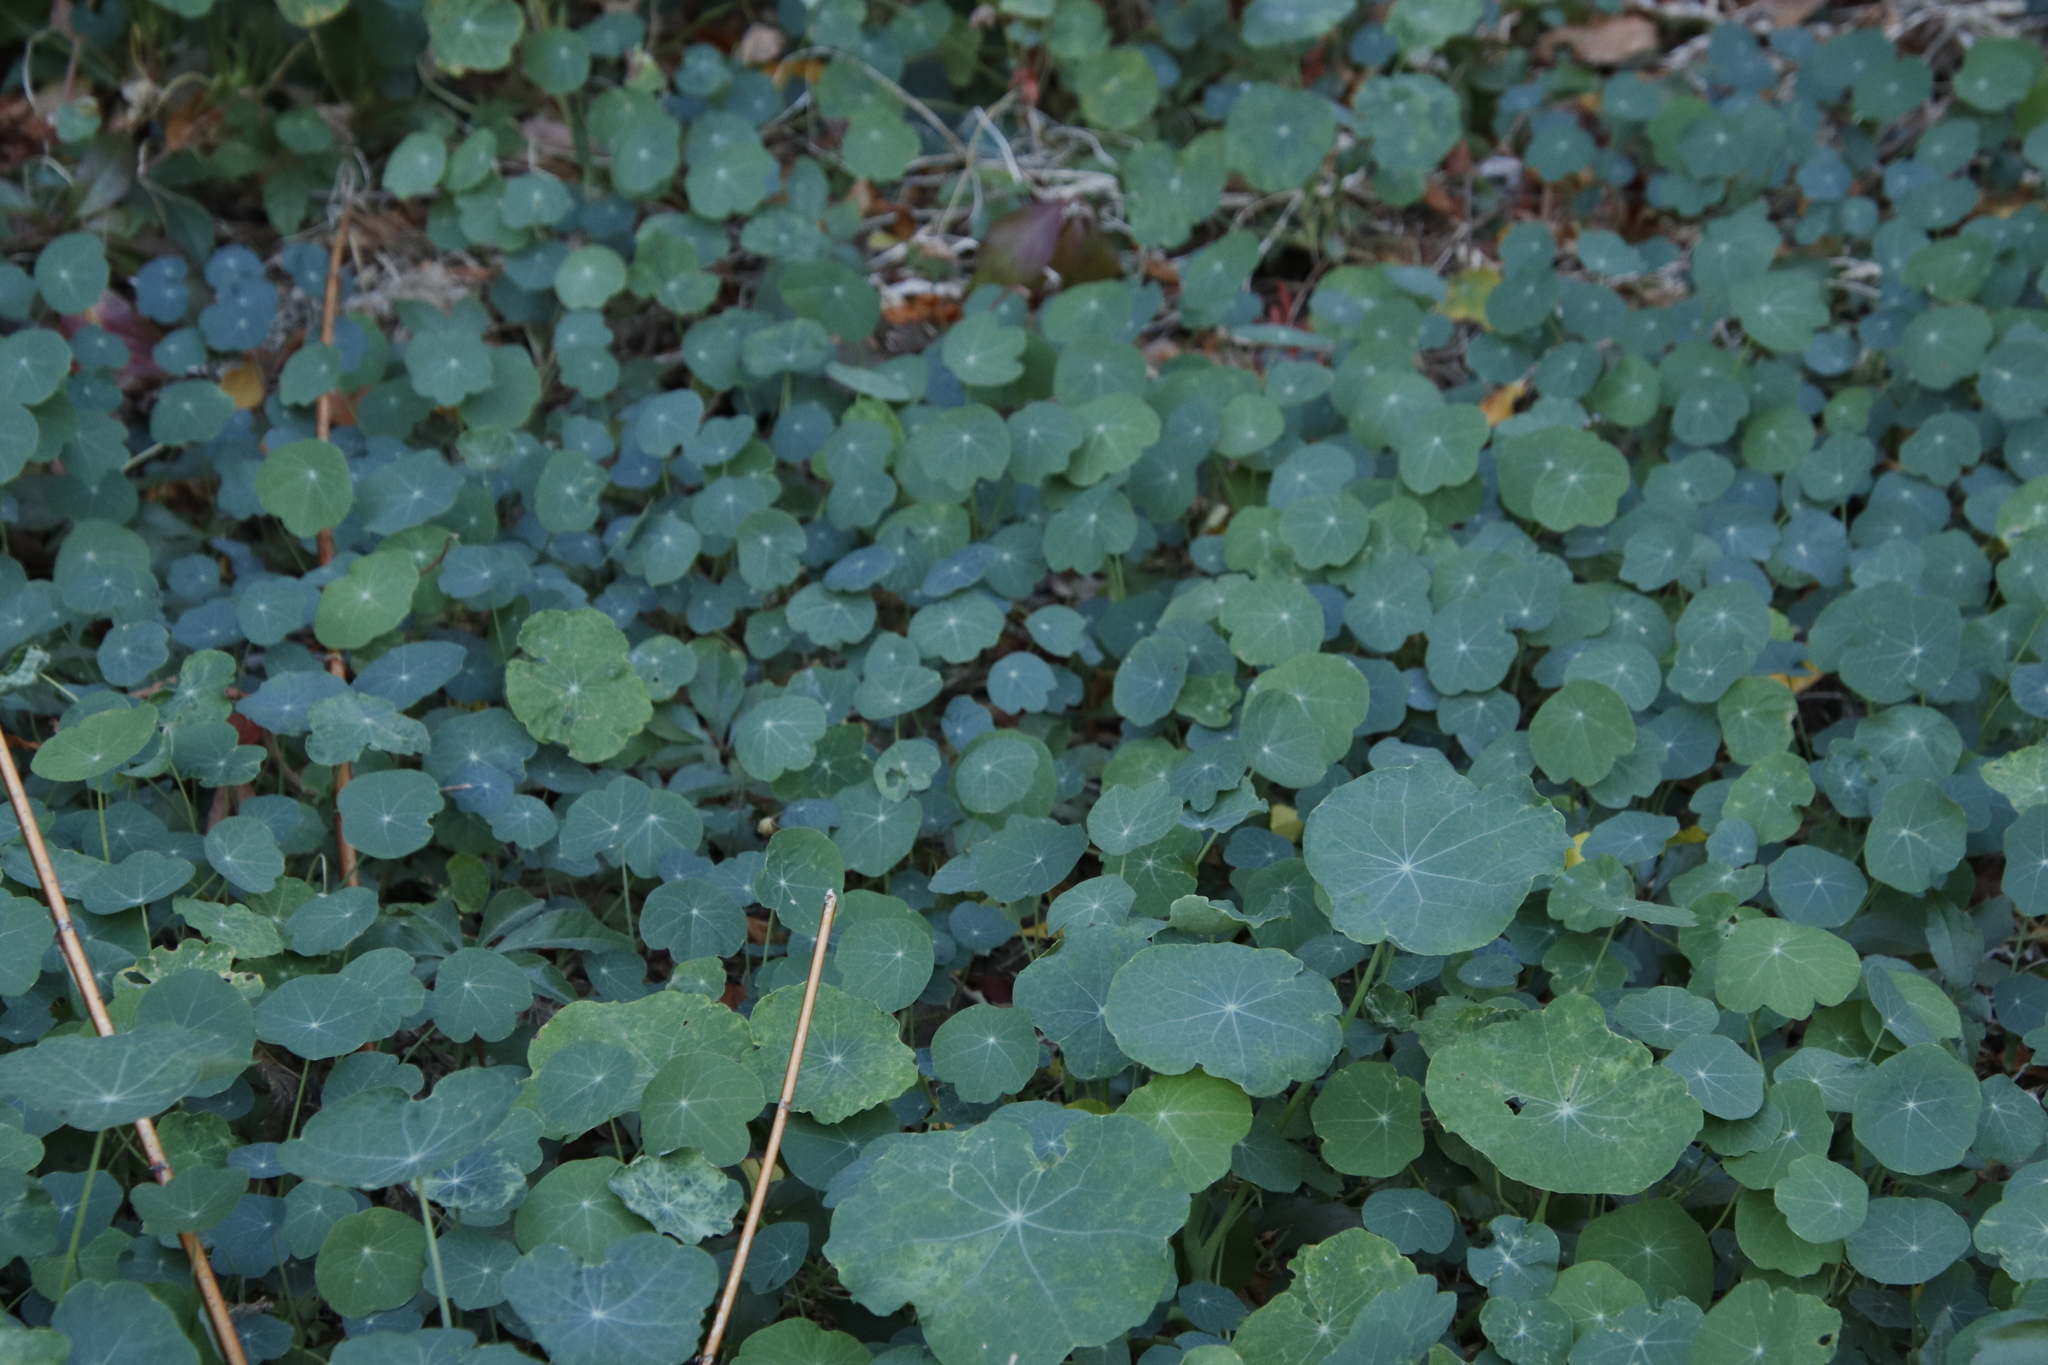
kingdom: Plantae
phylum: Tracheophyta
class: Magnoliopsida
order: Brassicales
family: Tropaeolaceae
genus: Tropaeolum
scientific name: Tropaeolum majus
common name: Nasturtium
